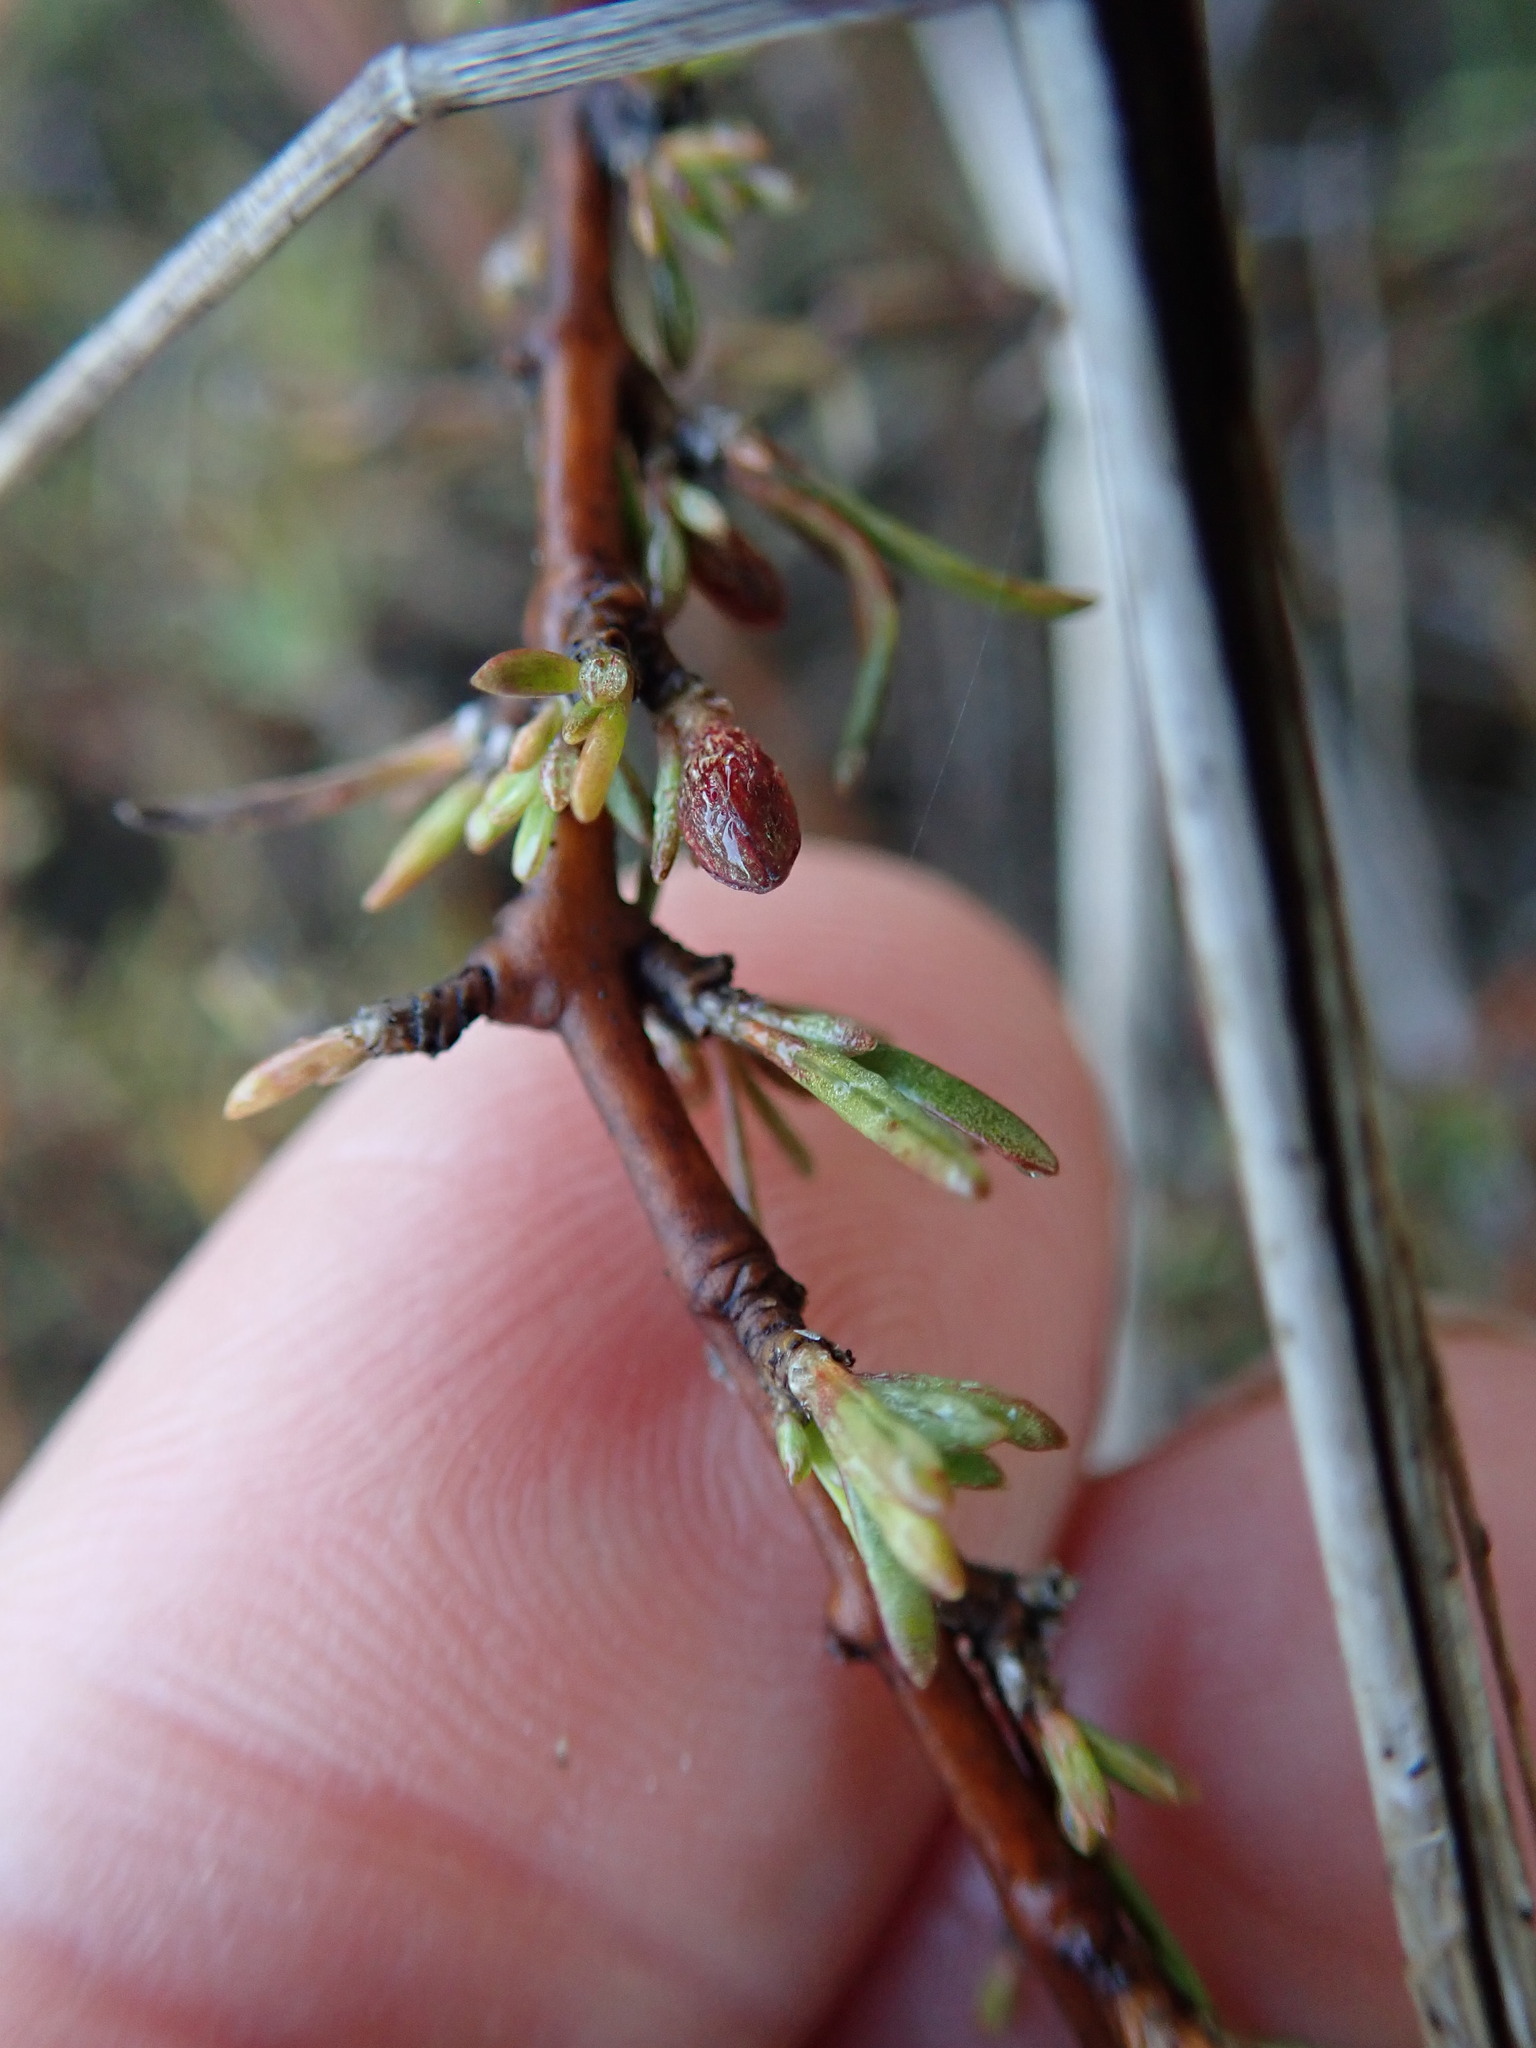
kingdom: Plantae
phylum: Tracheophyta
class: Magnoliopsida
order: Gentianales
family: Rubiaceae
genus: Coprosma
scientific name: Coprosma acerosa
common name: Sand coprosma
